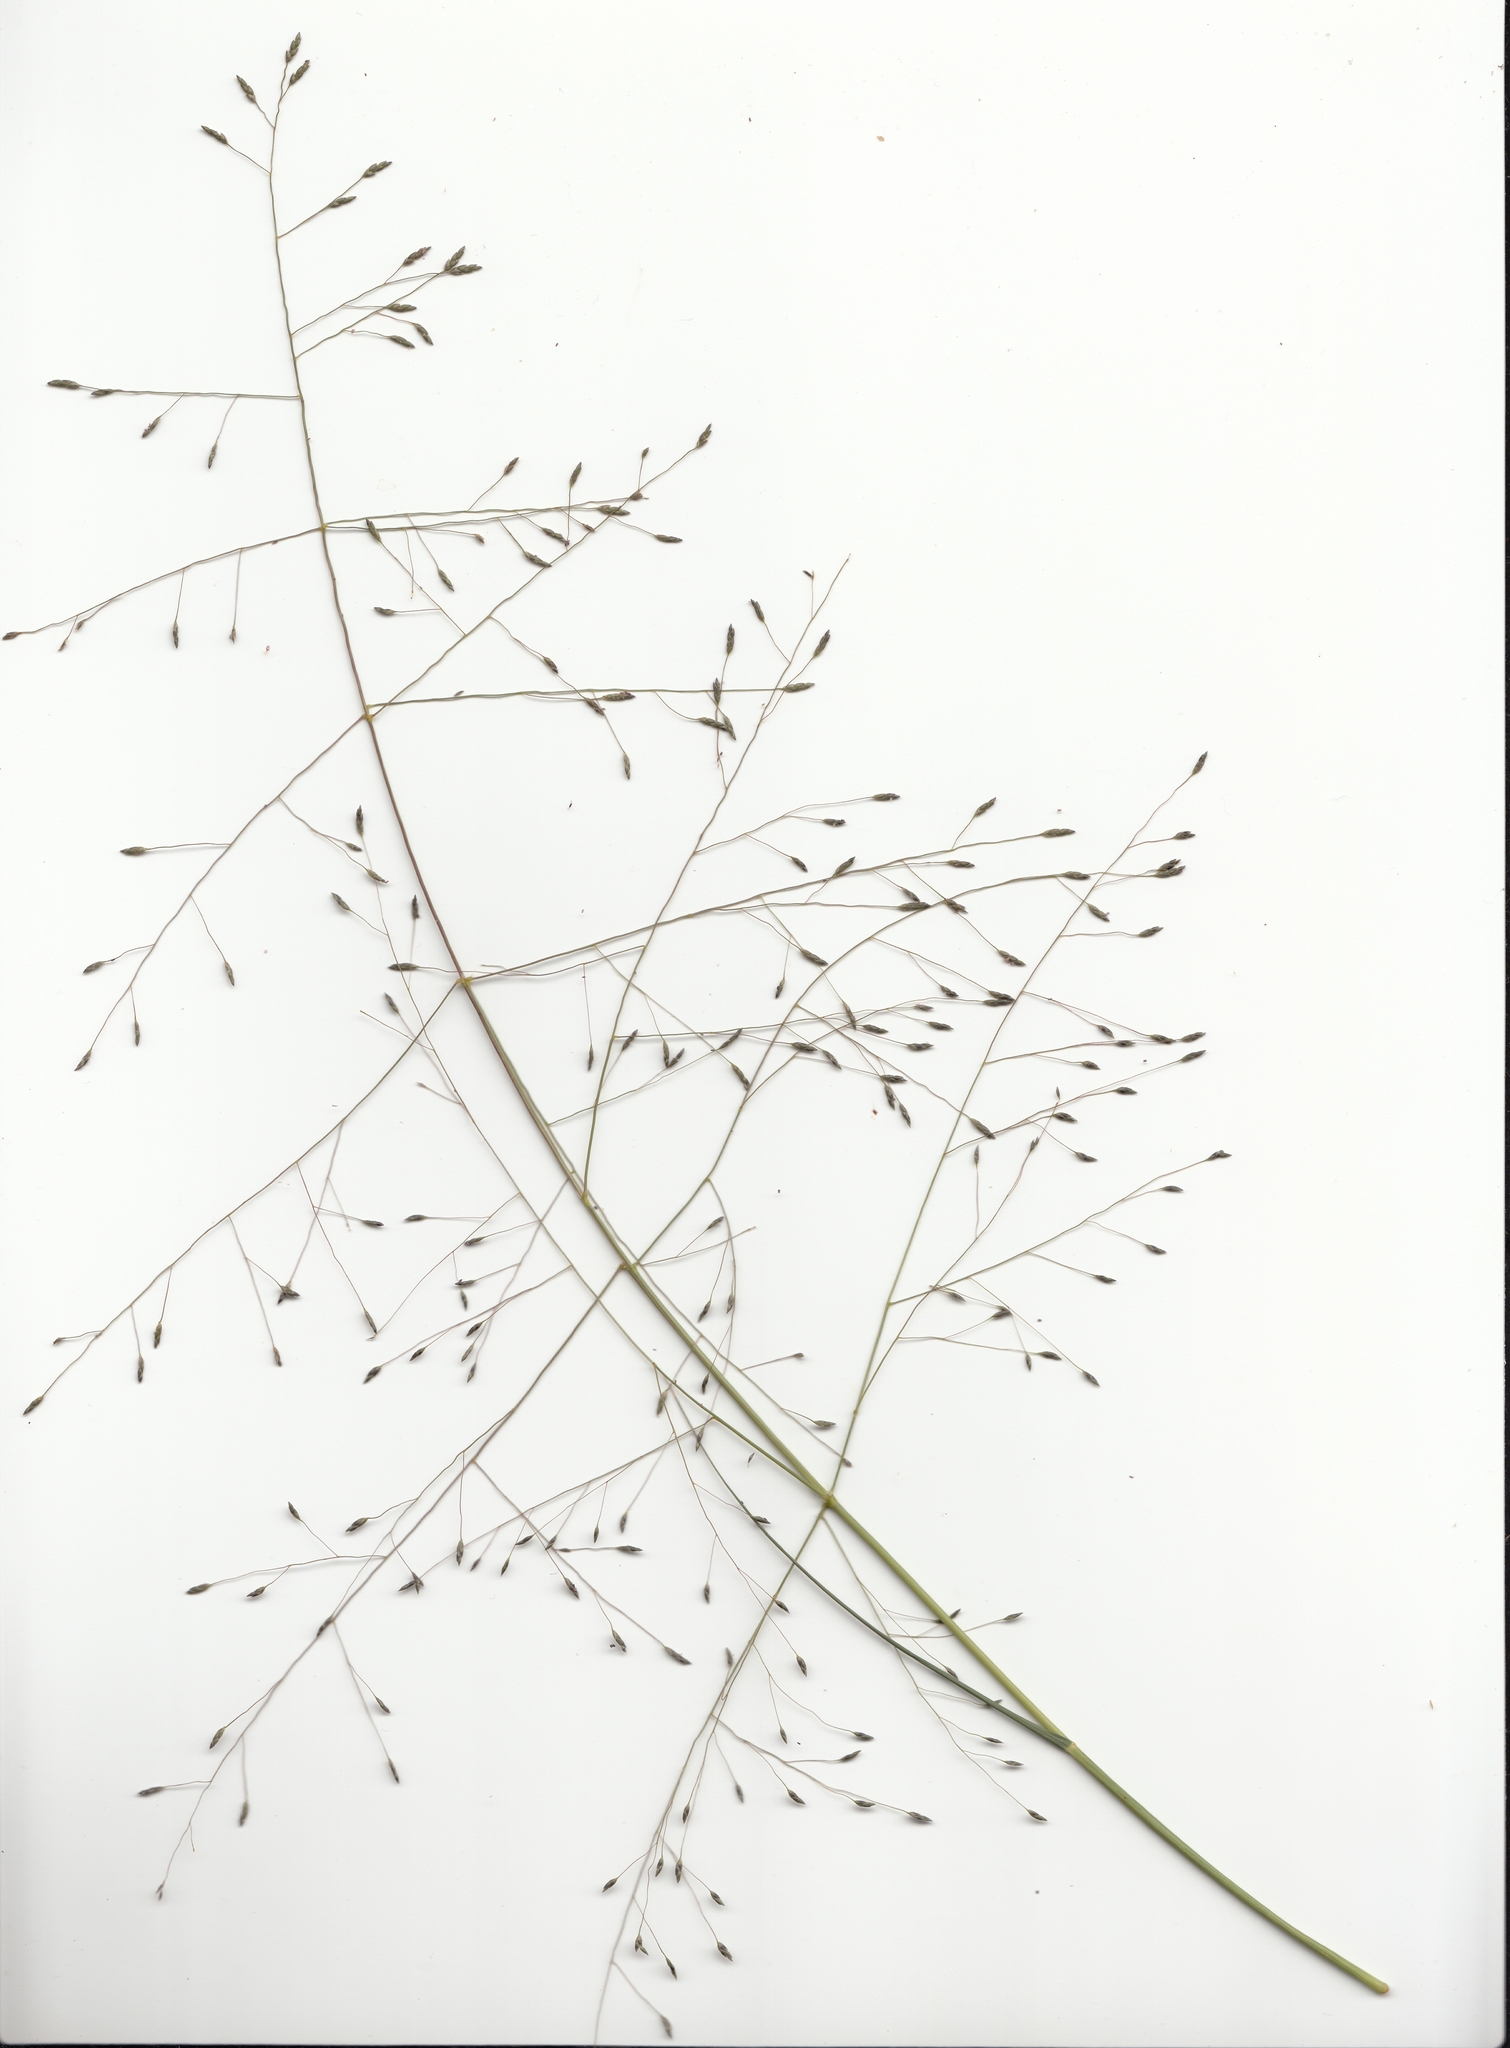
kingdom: Plantae
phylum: Tracheophyta
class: Liliopsida
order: Poales
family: Poaceae
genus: Eragrostis
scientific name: Eragrostis trachycarpa
